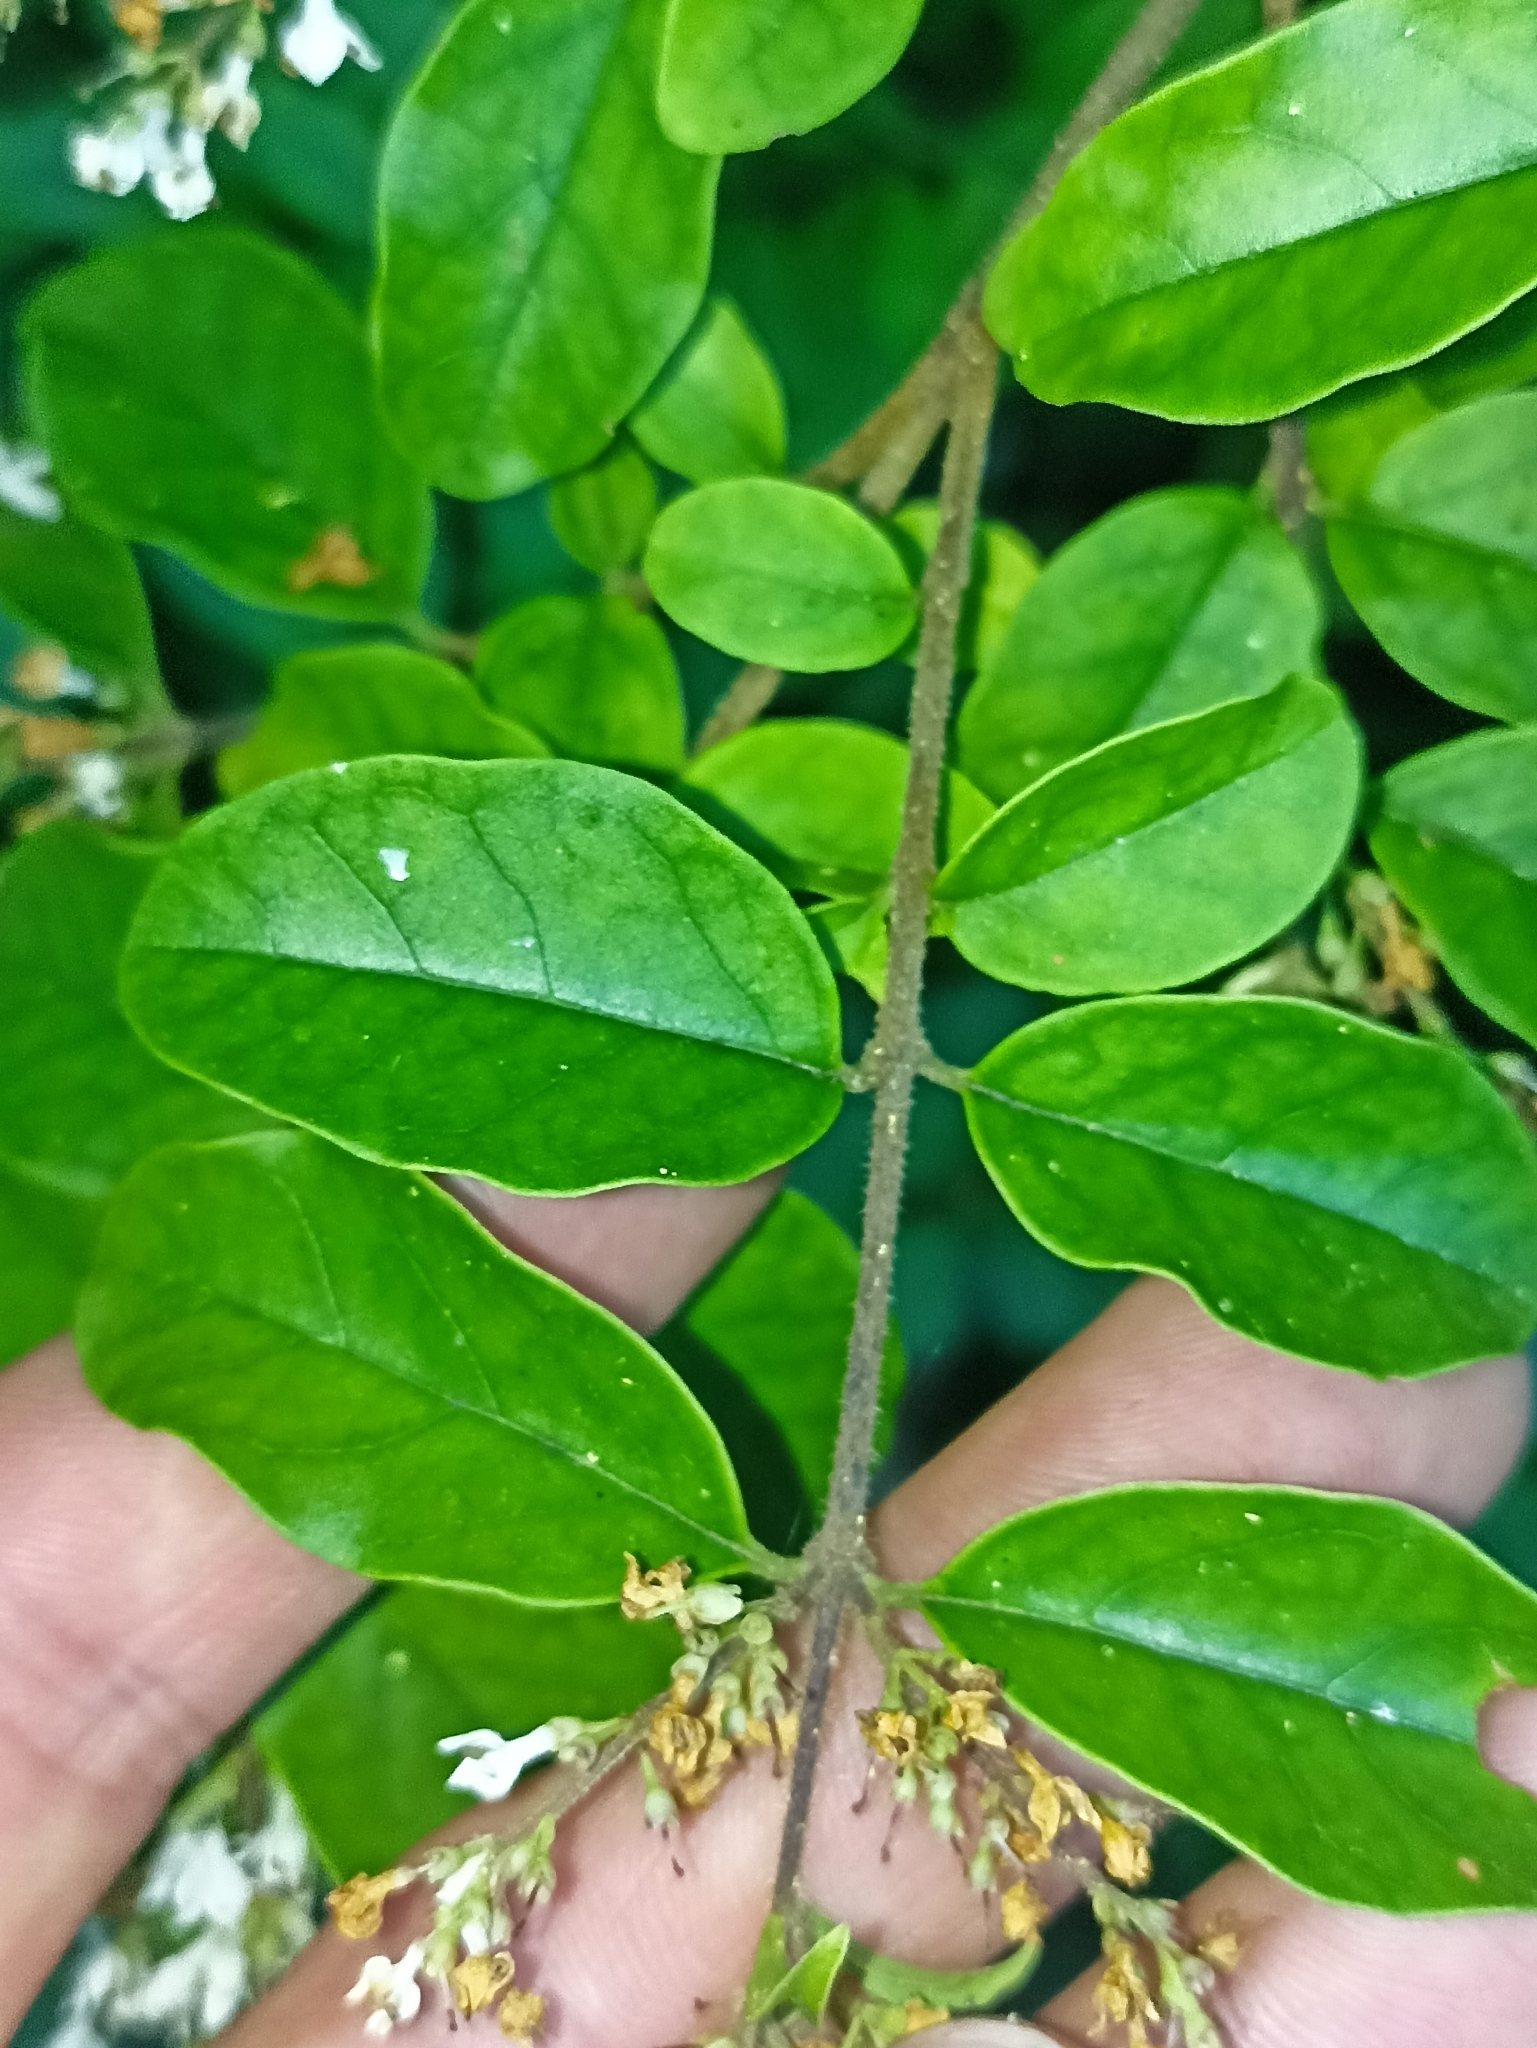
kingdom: Plantae
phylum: Tracheophyta
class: Magnoliopsida
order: Lamiales
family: Oleaceae
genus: Ligustrum
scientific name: Ligustrum sinense
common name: Chinese privet
